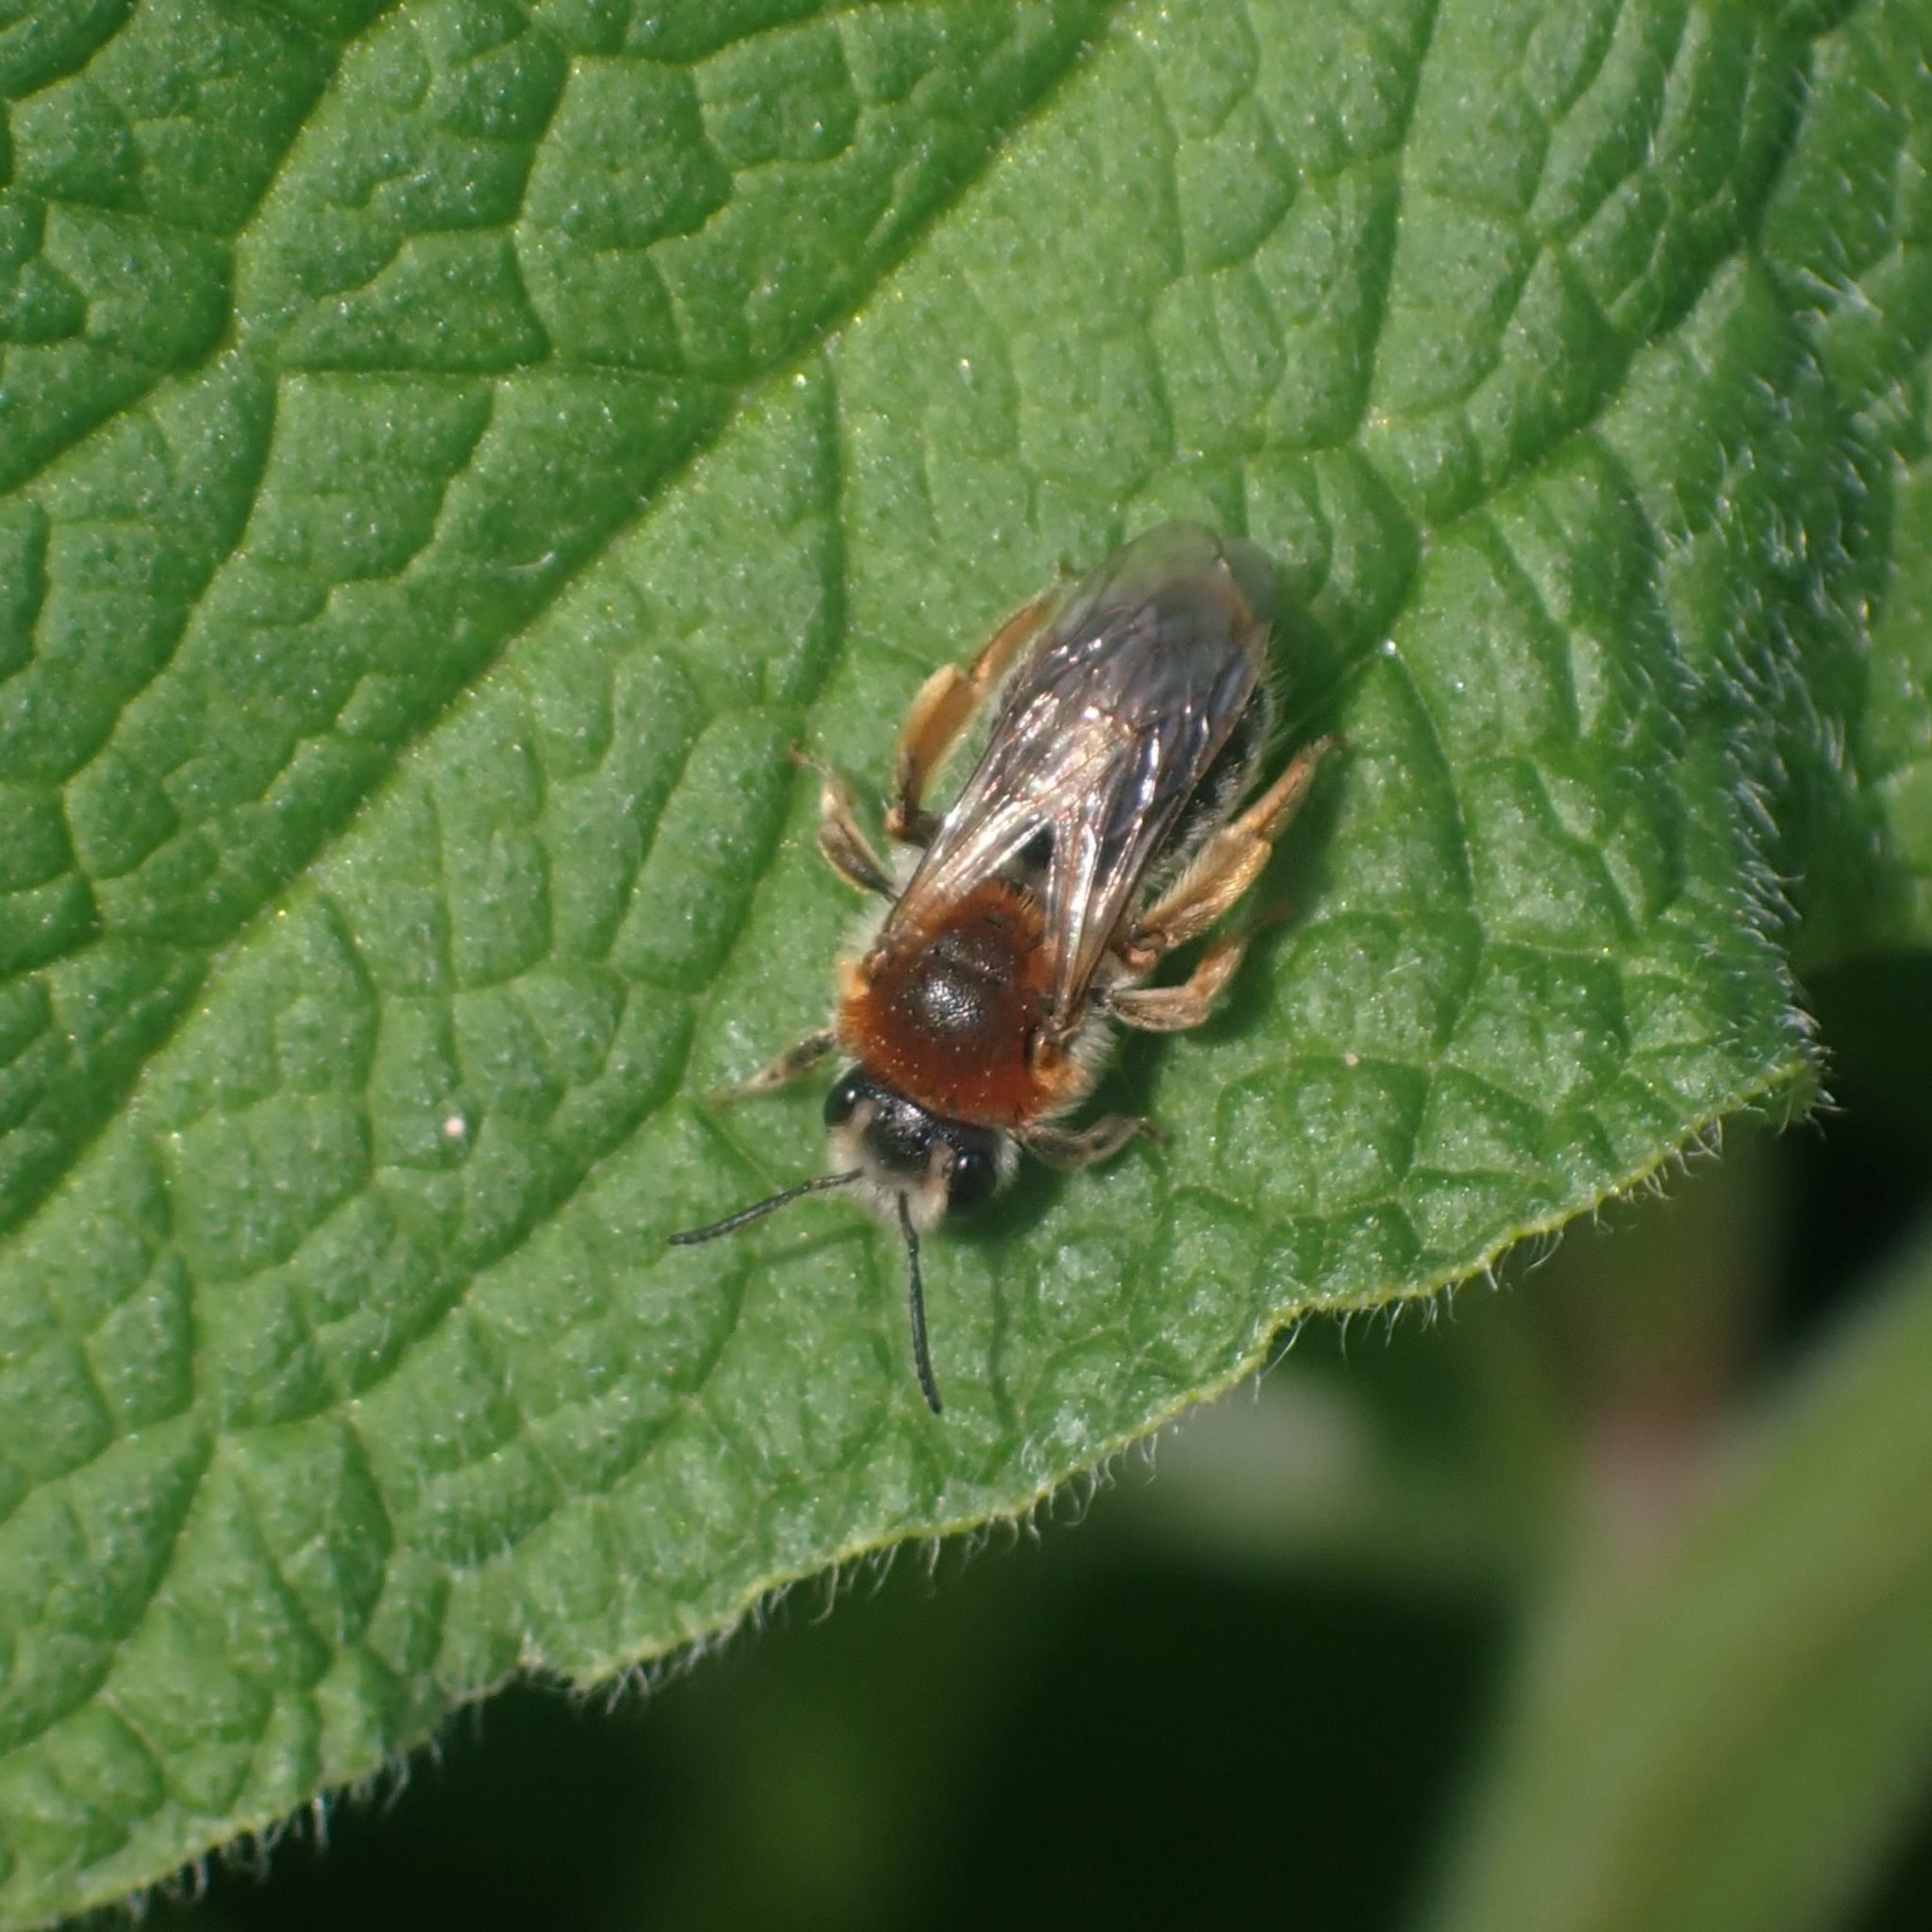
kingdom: Animalia
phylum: Arthropoda
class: Insecta
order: Hymenoptera
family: Andrenidae
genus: Andrena
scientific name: Andrena haemorrhoa
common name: Early mining bee
